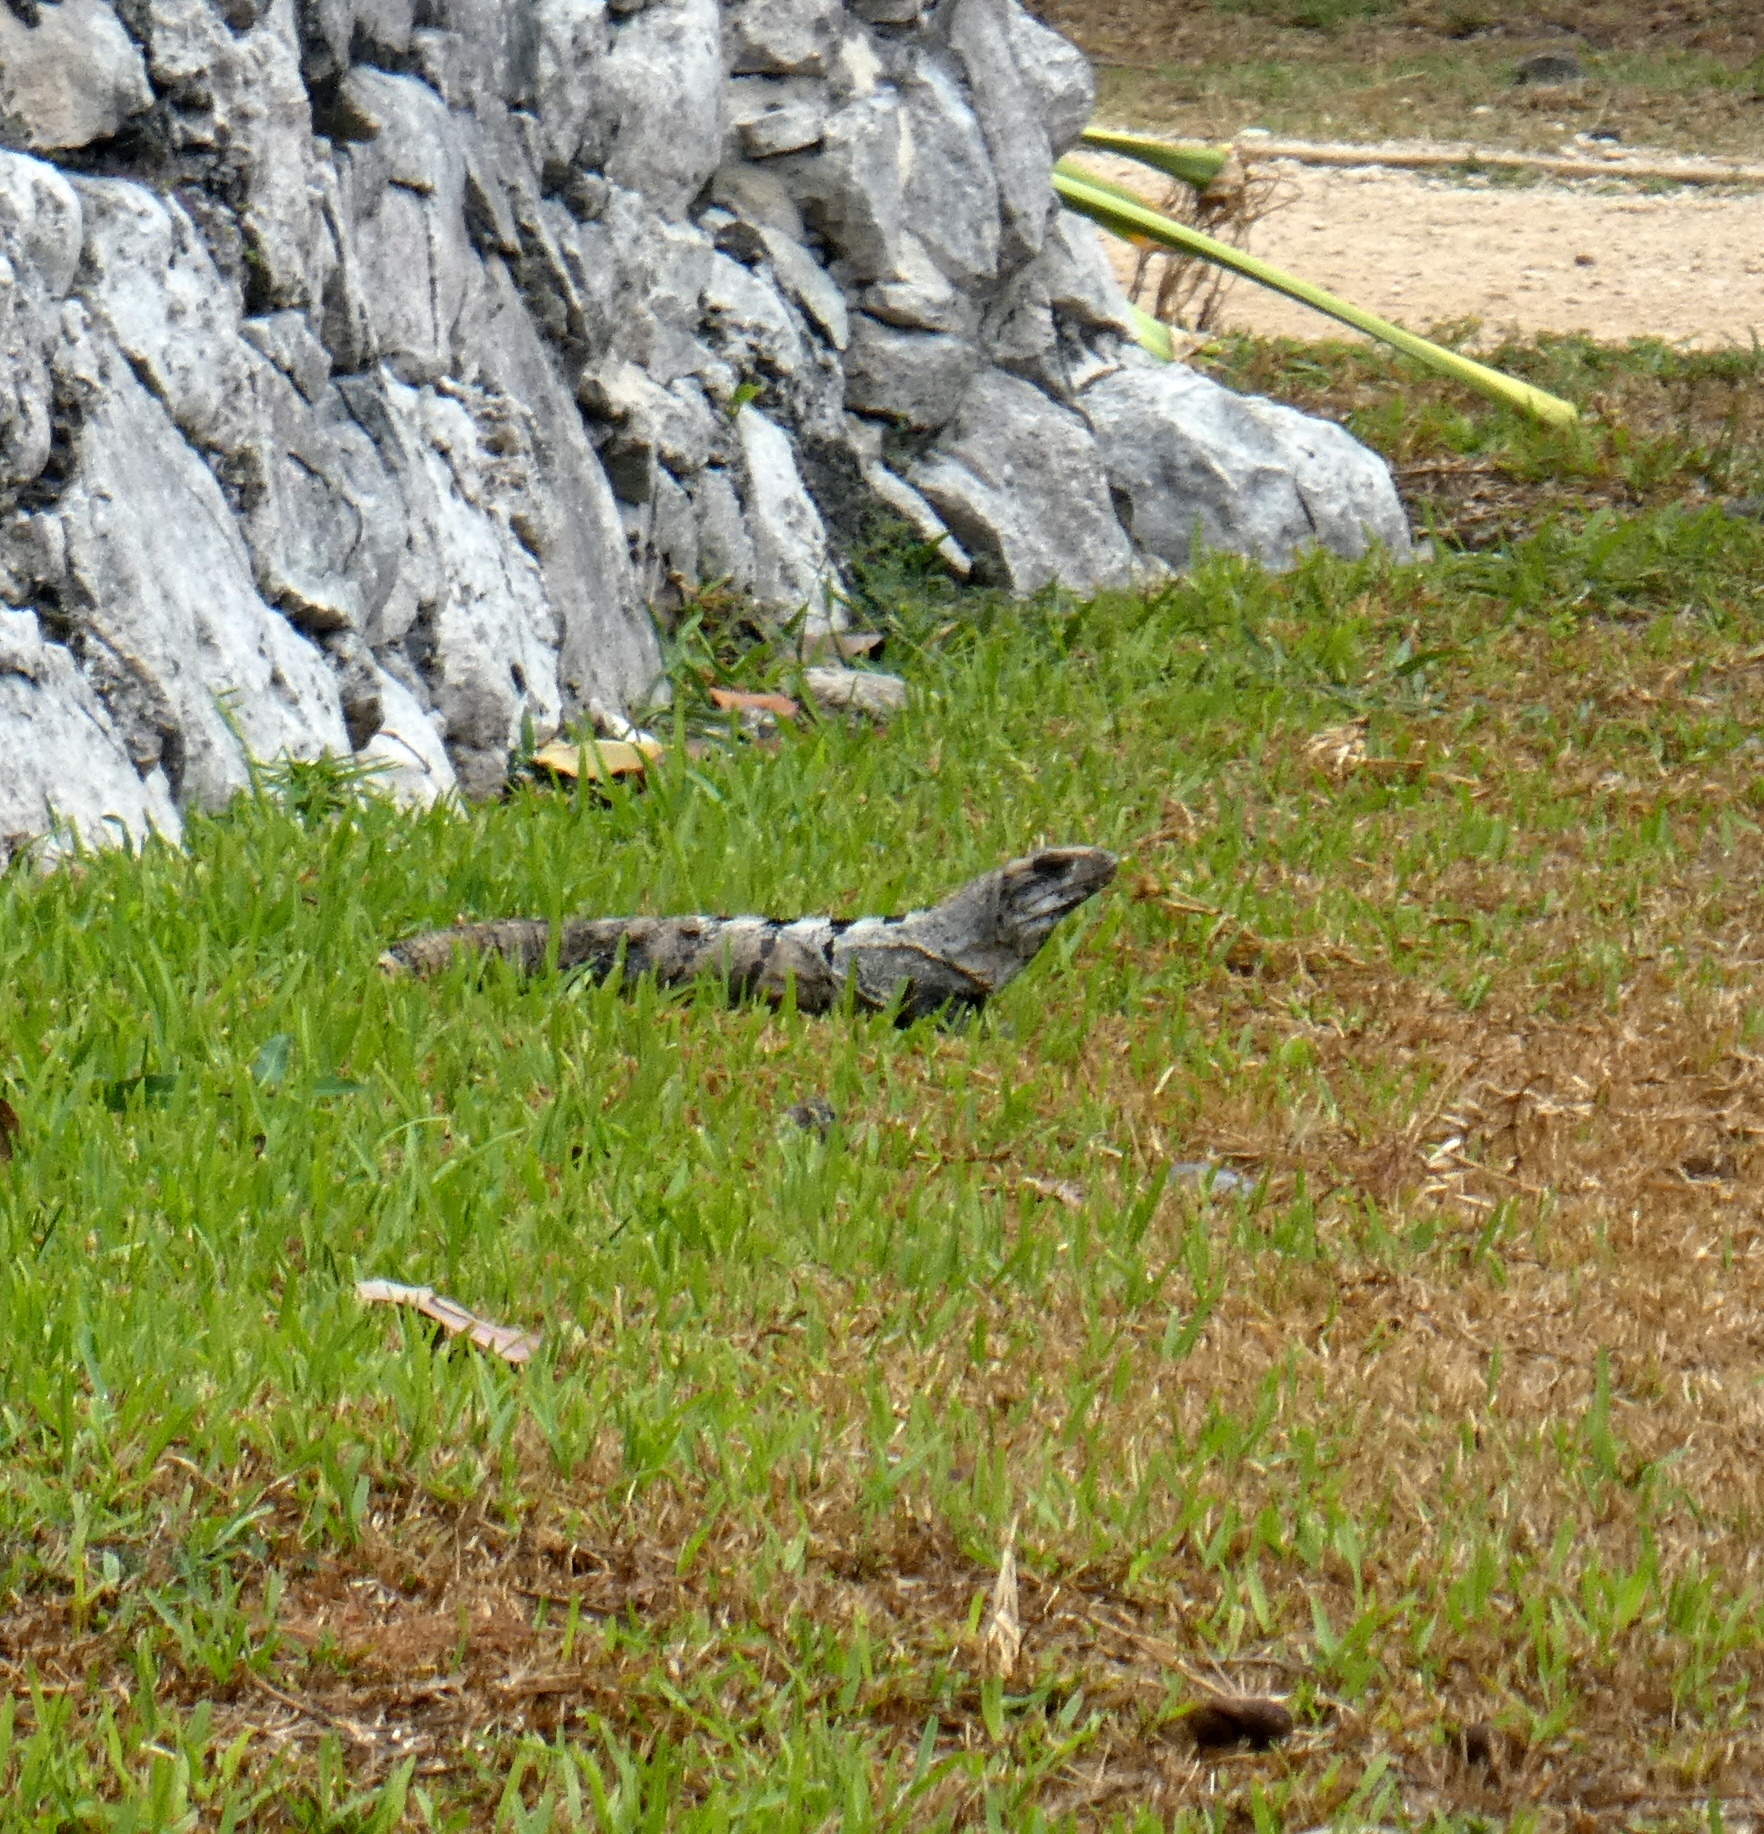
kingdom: Animalia
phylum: Chordata
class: Squamata
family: Iguanidae
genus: Ctenosaura
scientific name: Ctenosaura similis
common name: Black spiny-tailed iguana
